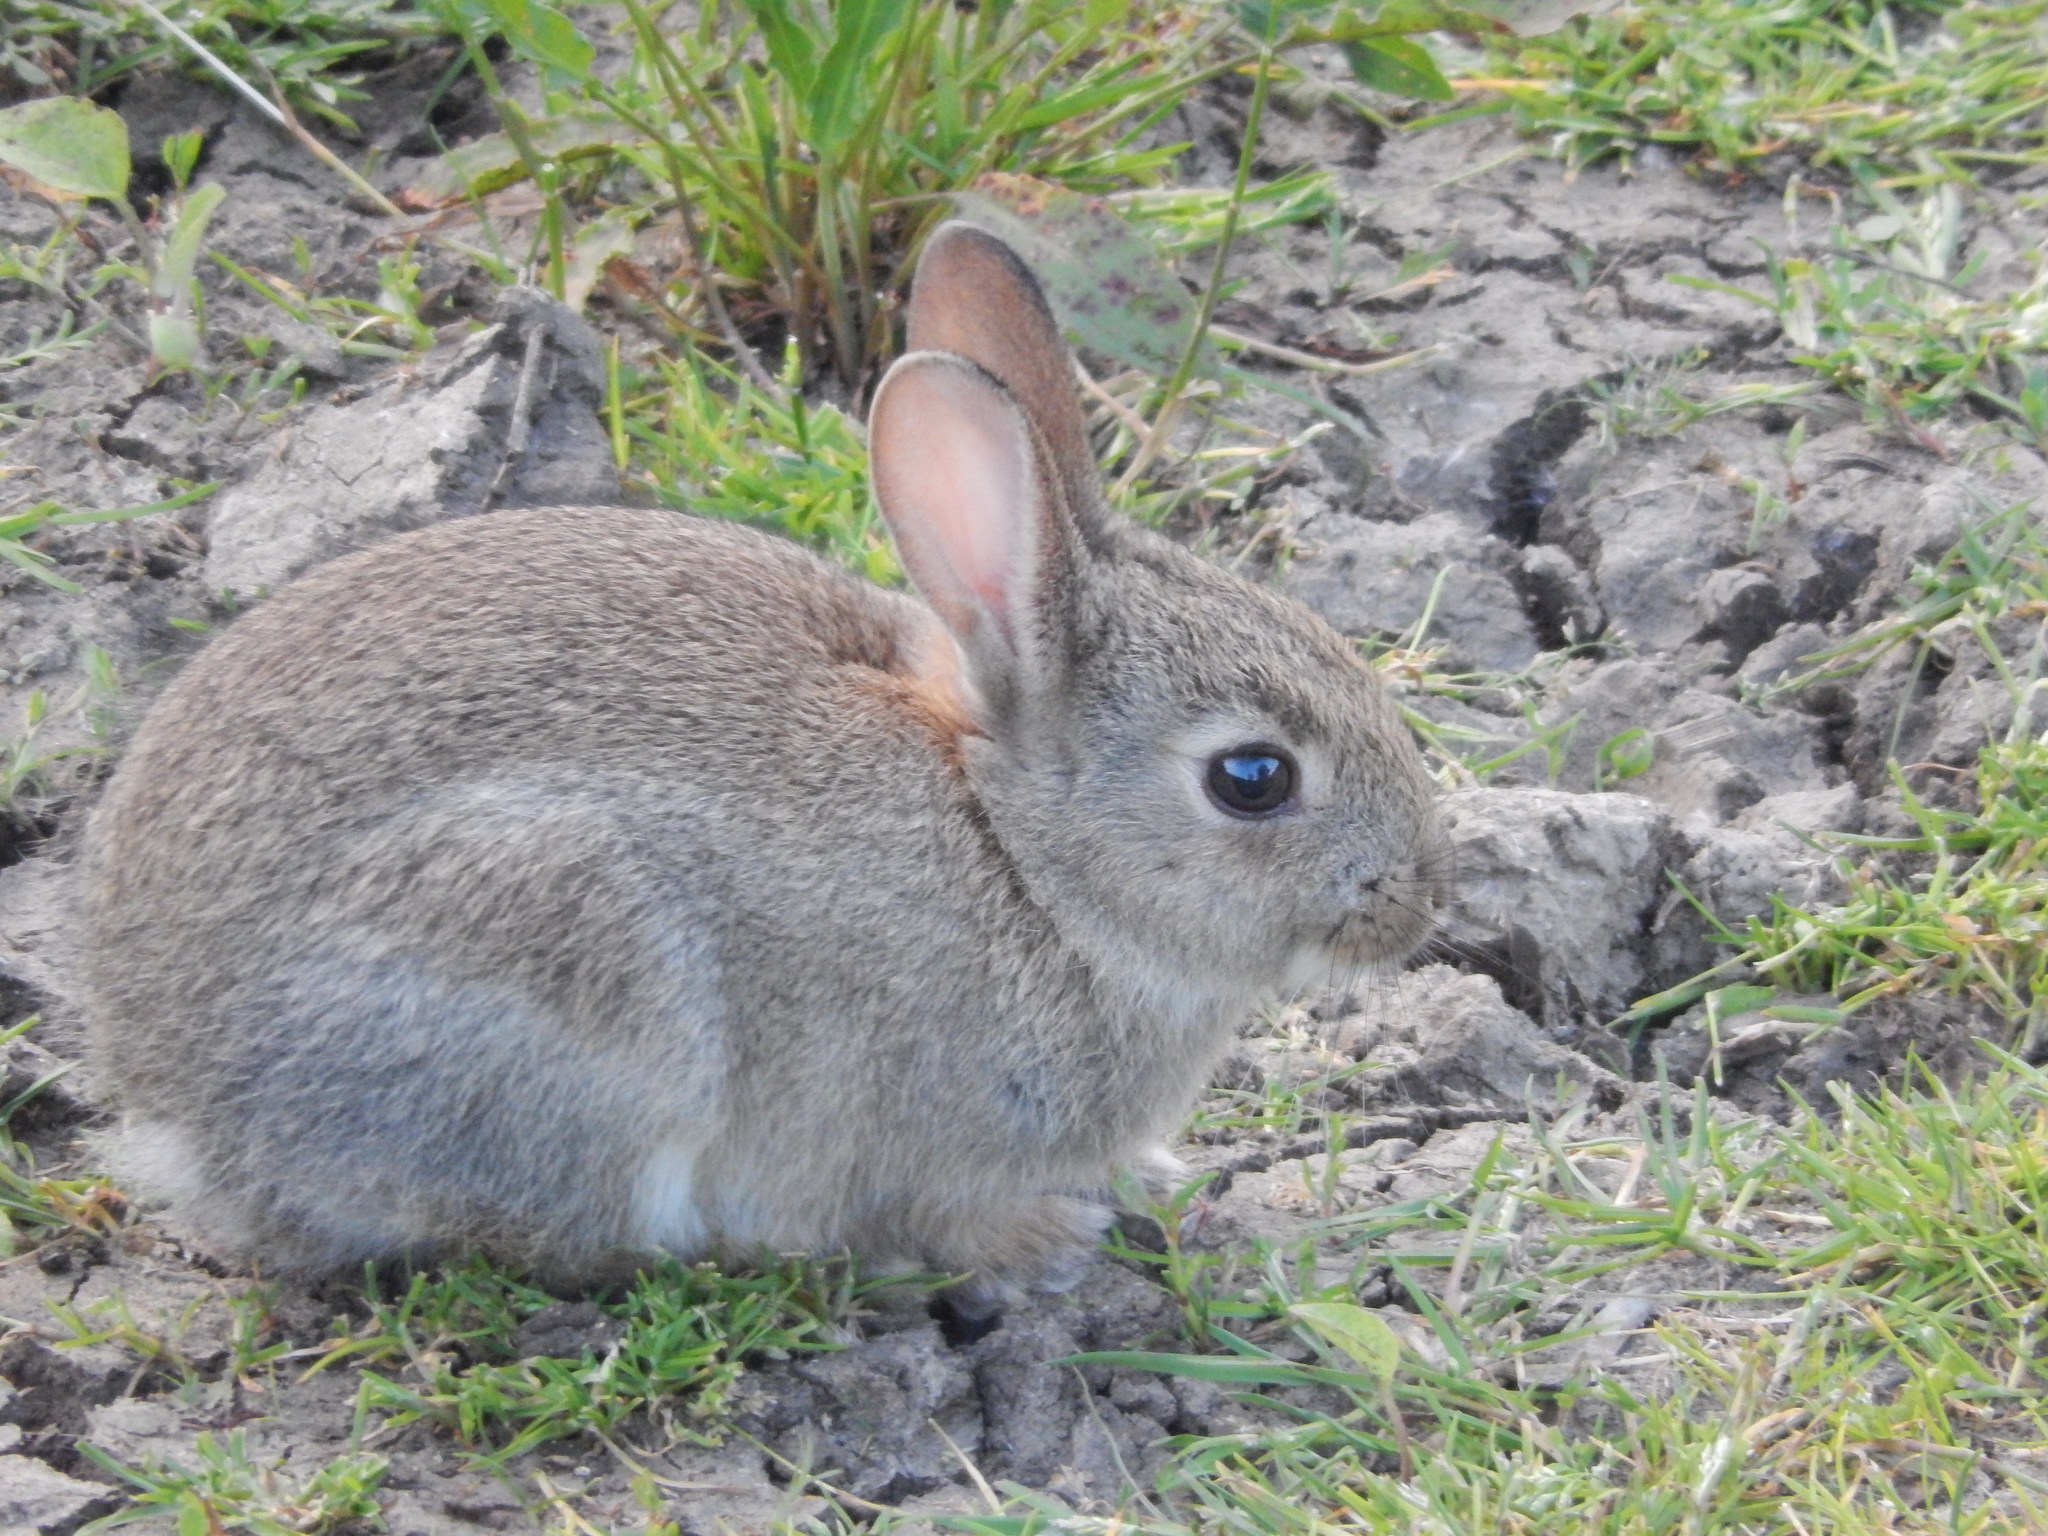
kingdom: Animalia
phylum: Chordata
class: Mammalia
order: Lagomorpha
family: Leporidae
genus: Oryctolagus
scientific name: Oryctolagus cuniculus
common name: European rabbit
